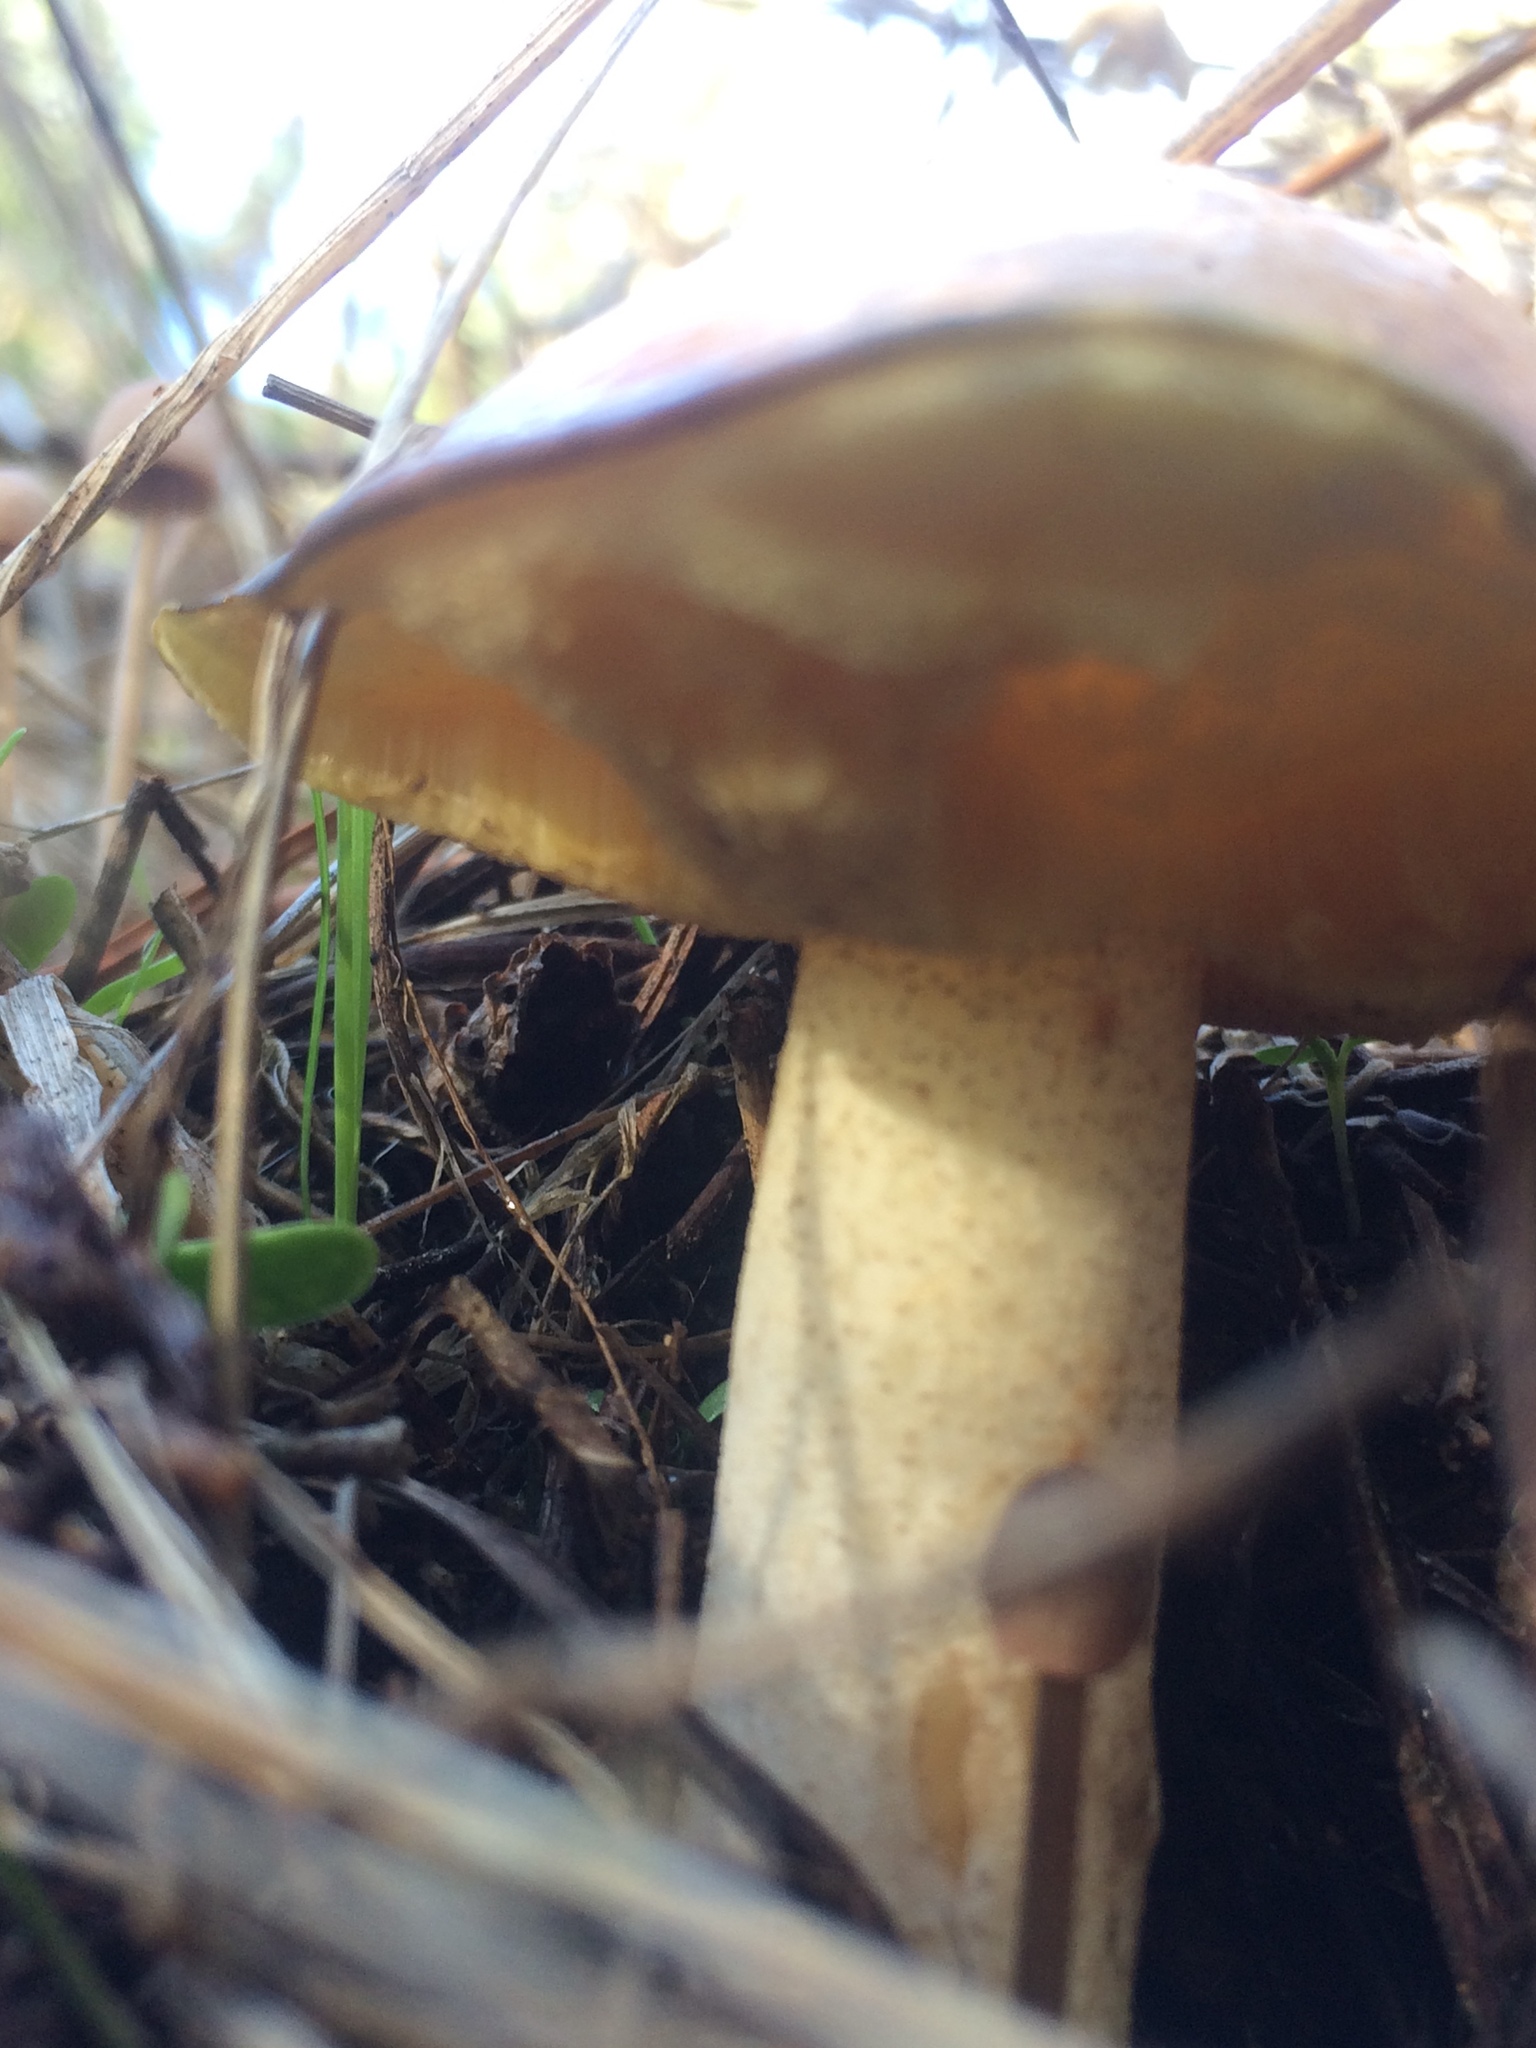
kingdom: Fungi
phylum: Basidiomycota
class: Agaricomycetes
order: Boletales
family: Suillaceae
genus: Suillus
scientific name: Suillus pungens
